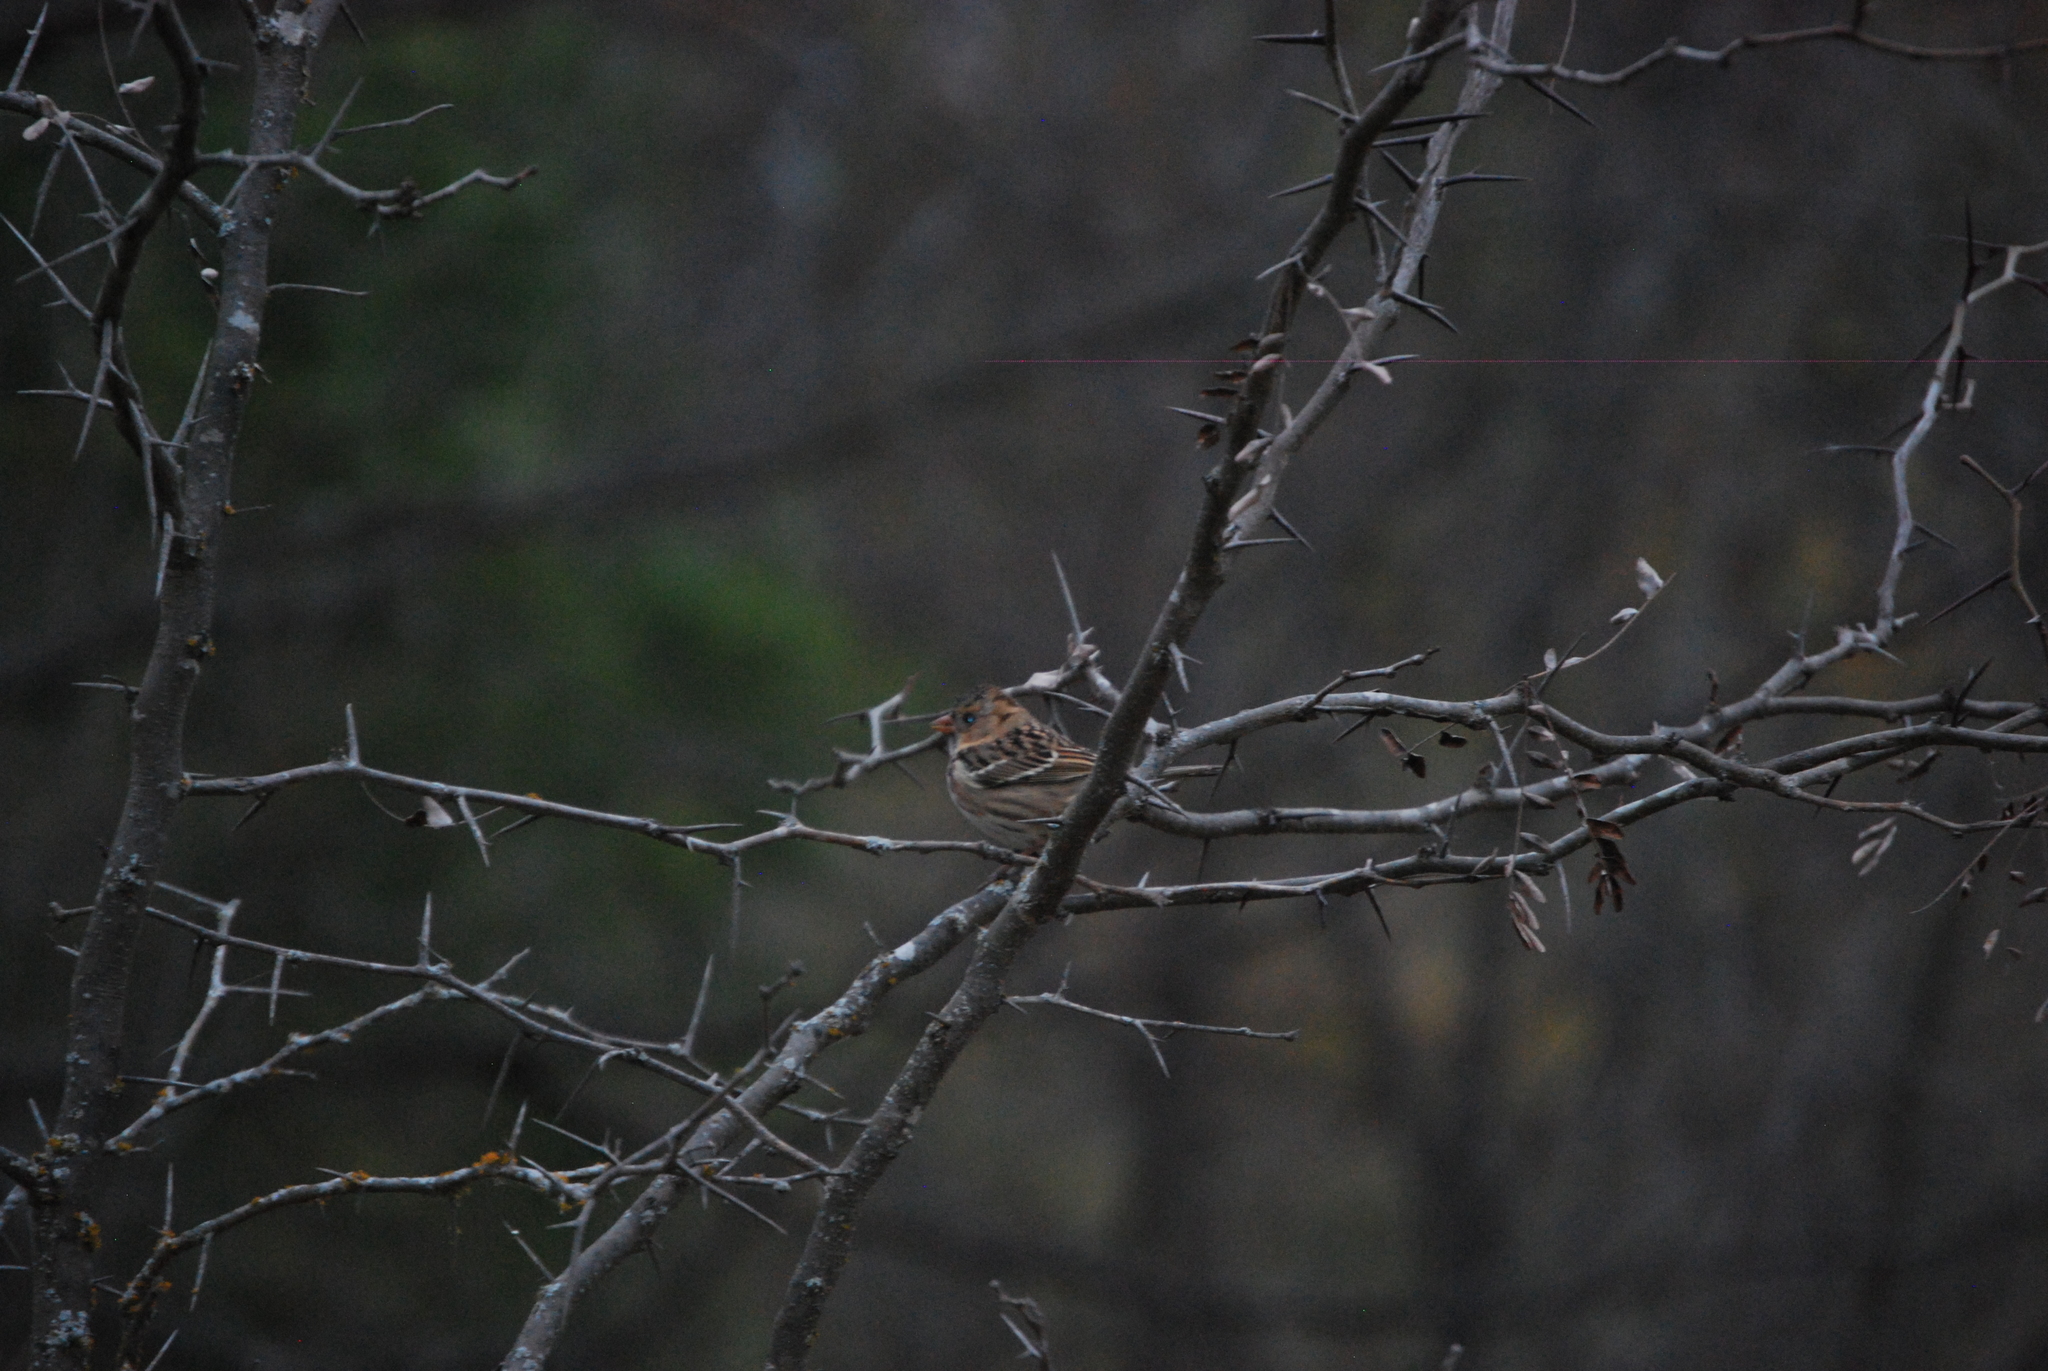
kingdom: Animalia
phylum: Chordata
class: Aves
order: Passeriformes
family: Passerellidae
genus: Zonotrichia
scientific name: Zonotrichia querula
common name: Harris's sparrow
